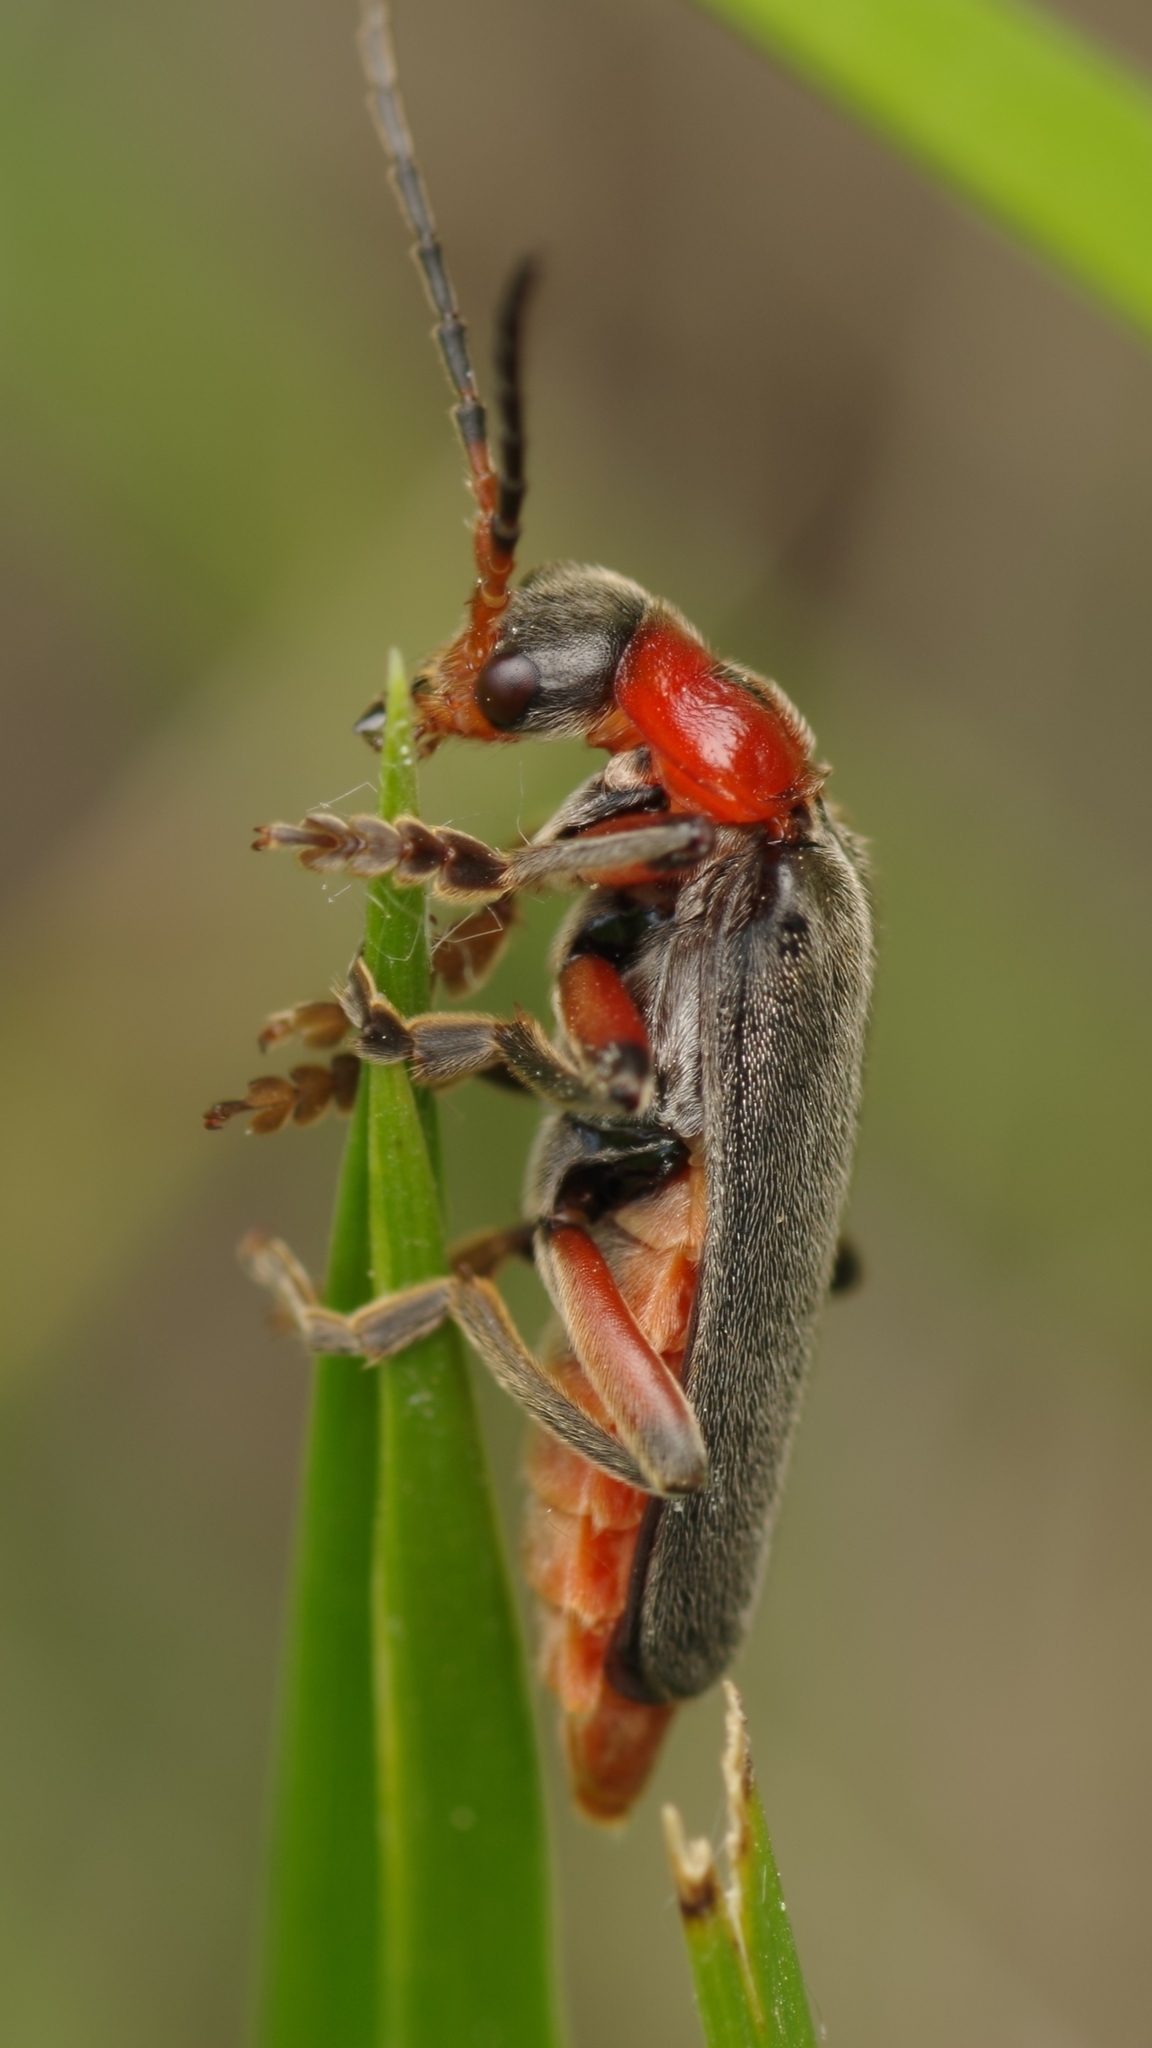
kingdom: Animalia
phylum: Arthropoda
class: Insecta
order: Coleoptera
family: Cantharidae
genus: Cantharis
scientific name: Cantharis rustica
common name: Soldier beetle
